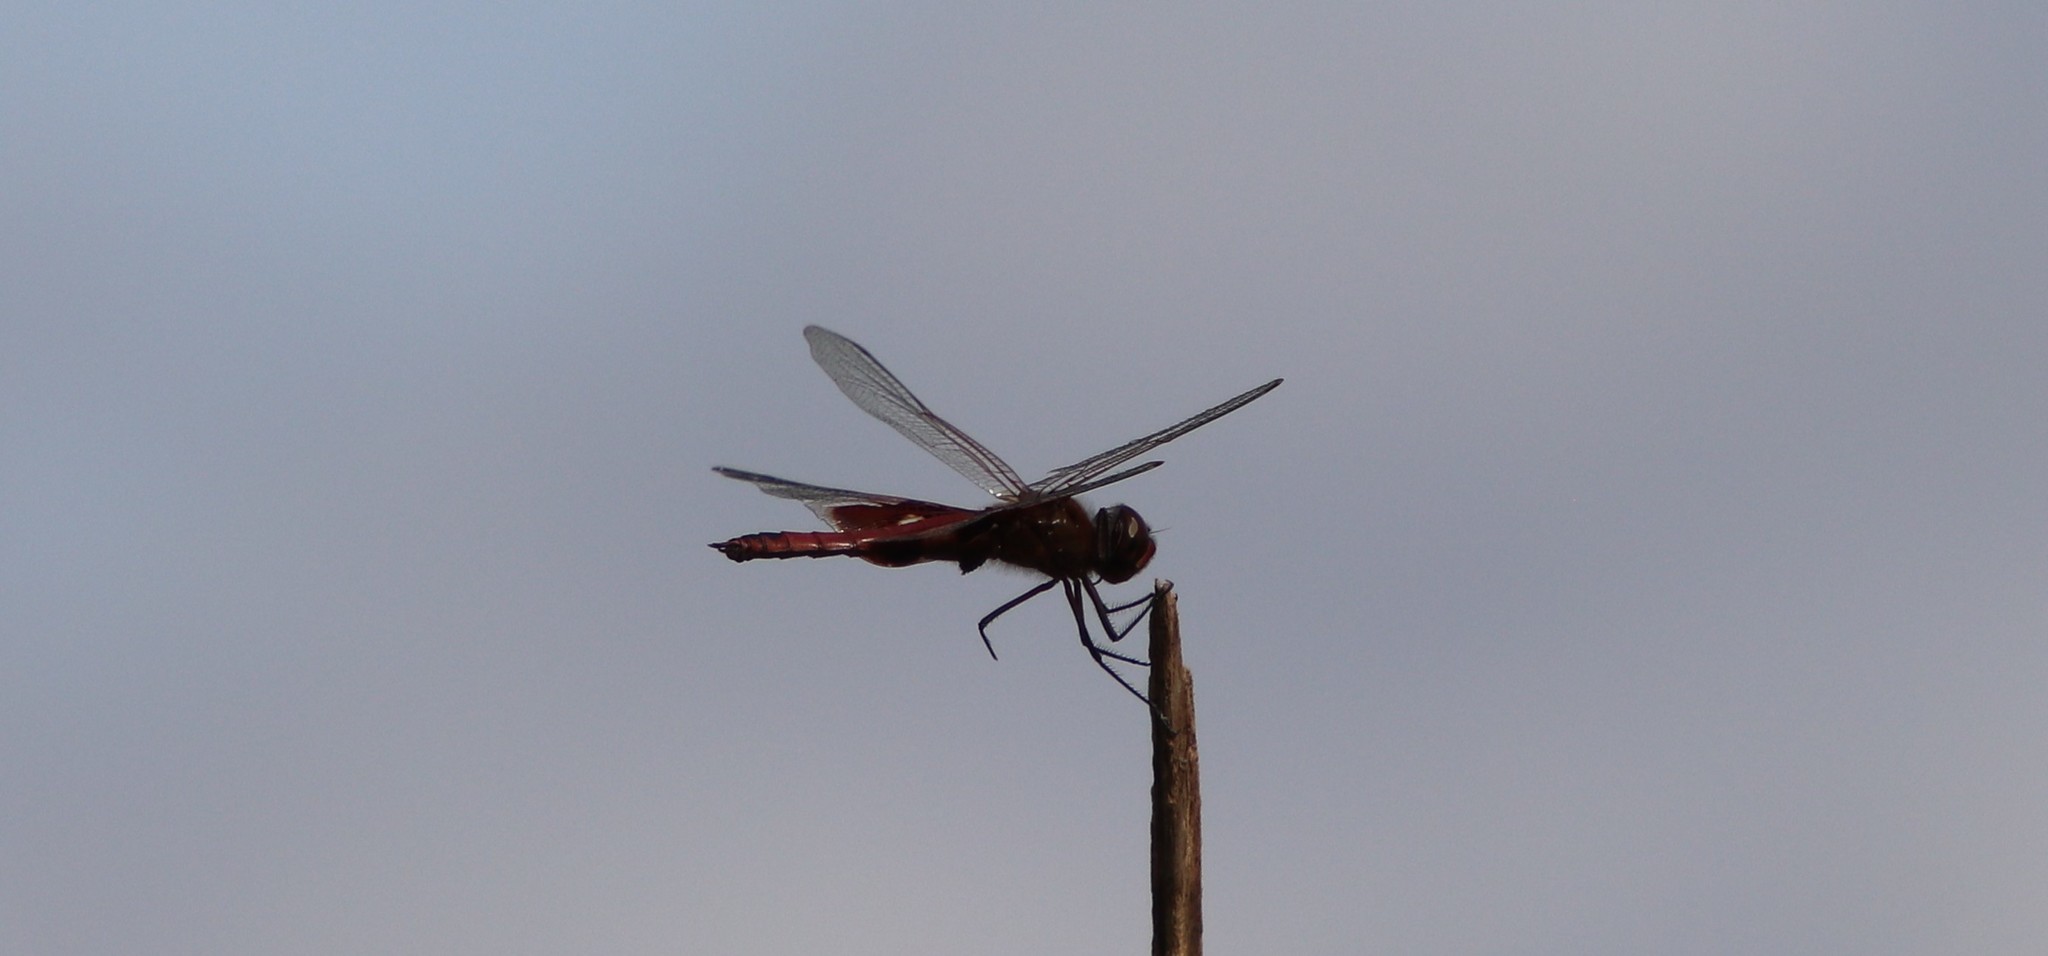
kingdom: Animalia
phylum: Arthropoda
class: Insecta
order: Odonata
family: Libellulidae
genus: Tramea
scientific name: Tramea onusta
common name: Red saddlebags
